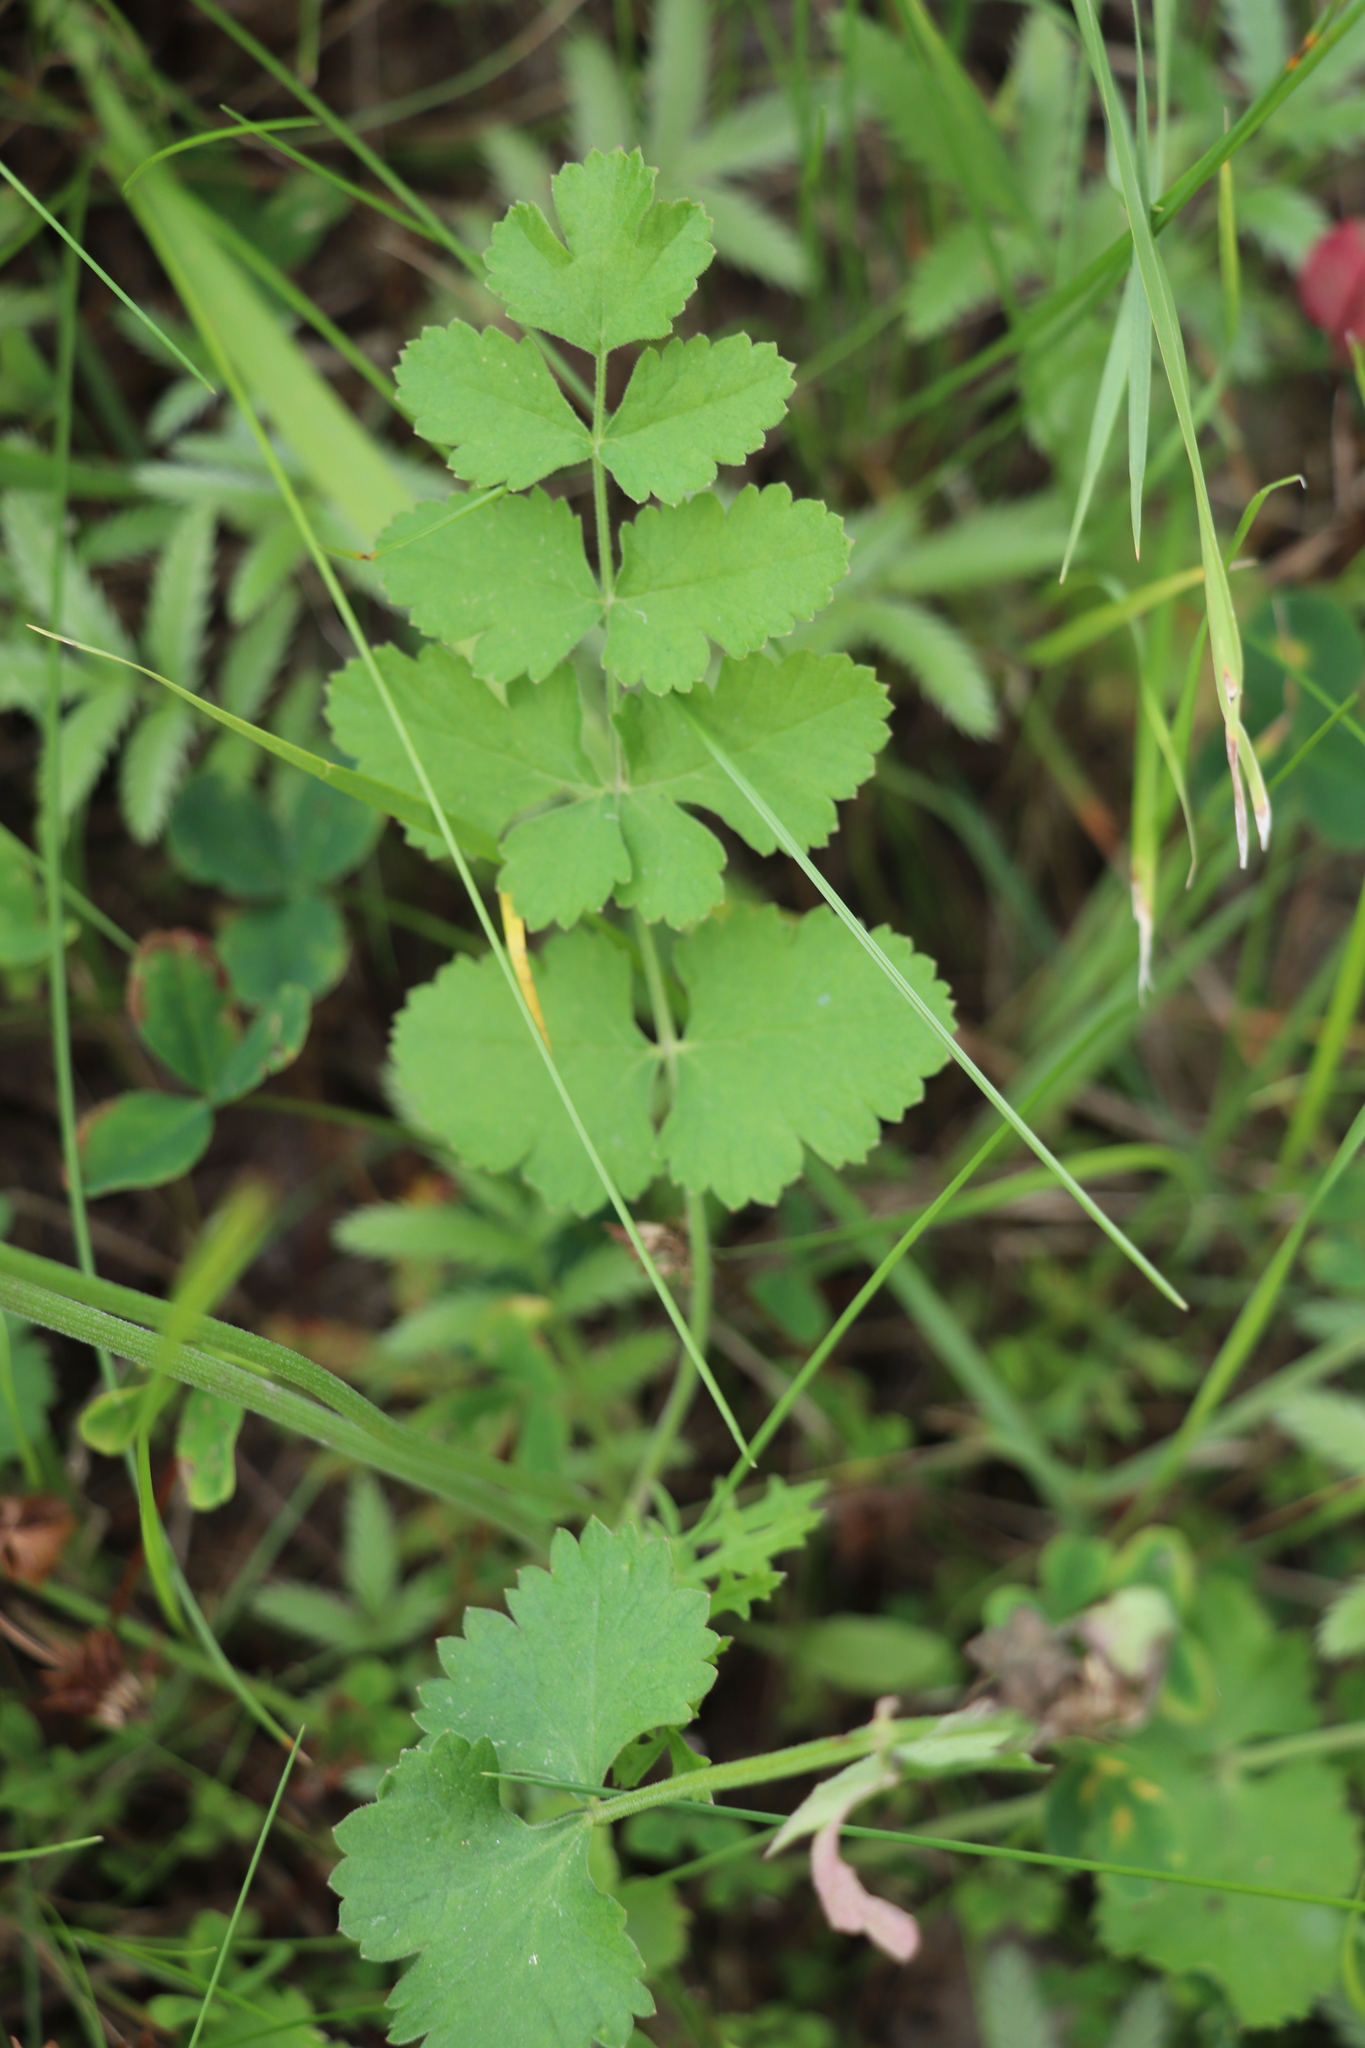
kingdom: Plantae
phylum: Tracheophyta
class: Magnoliopsida
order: Apiales
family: Apiaceae
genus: Pimpinella
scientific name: Pimpinella saxifraga
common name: Burnet-saxifrage
